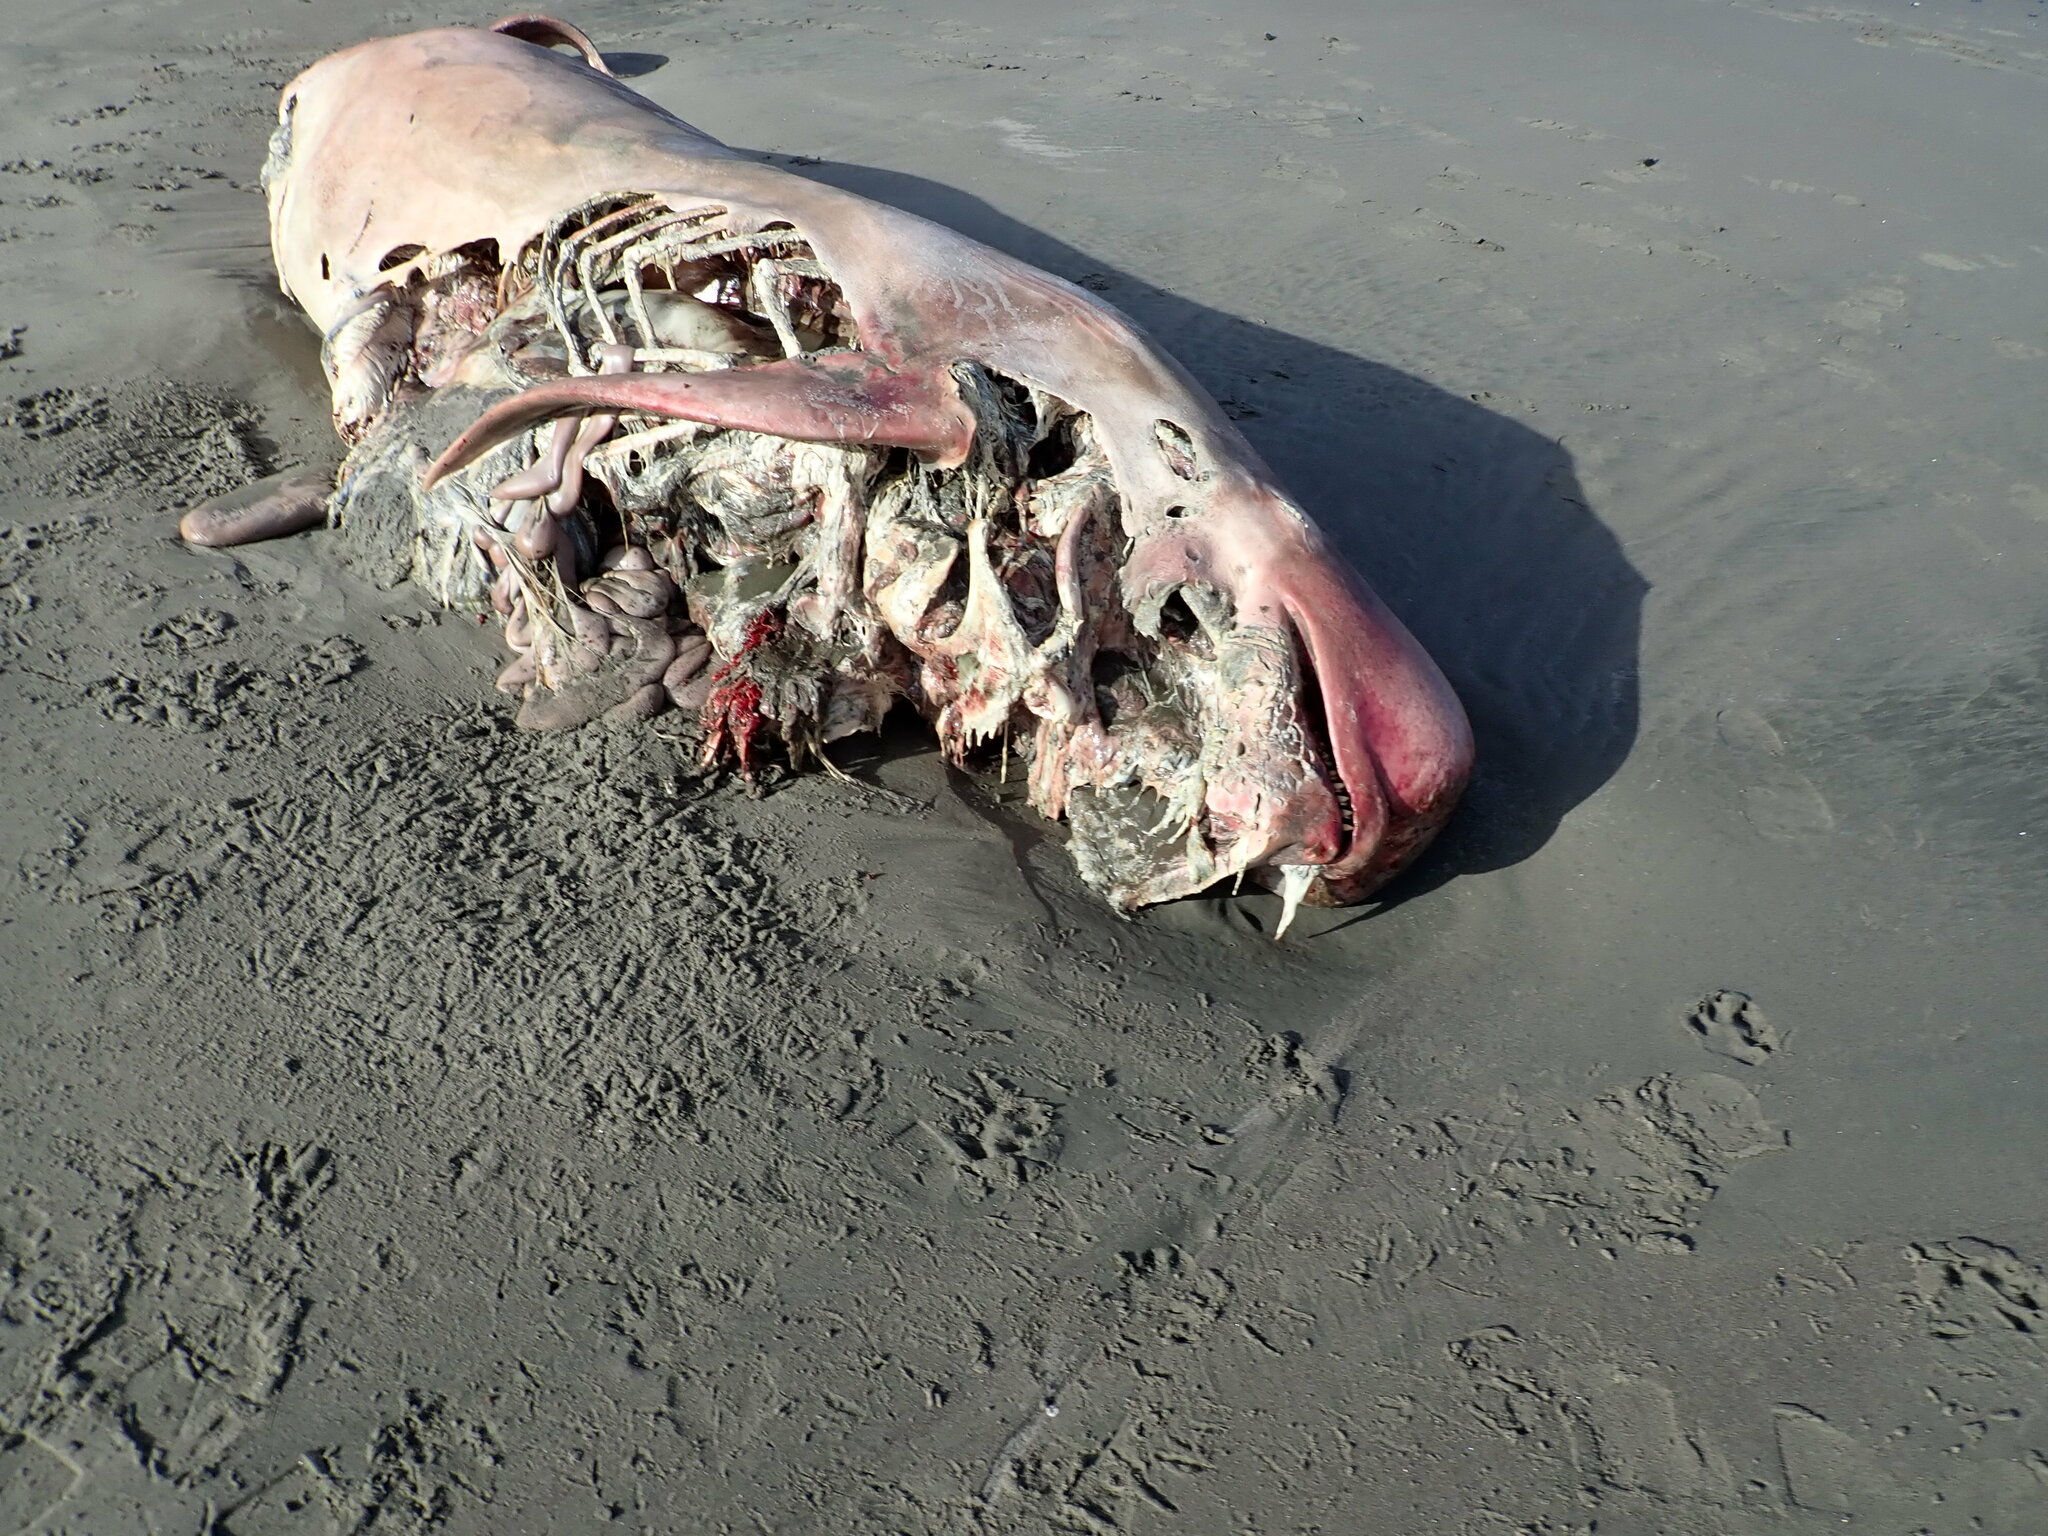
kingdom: Animalia
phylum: Chordata
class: Mammalia
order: Cetacea
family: Delphinidae
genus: Globicephala
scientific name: Globicephala melas
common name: Long-finned pilot whale
